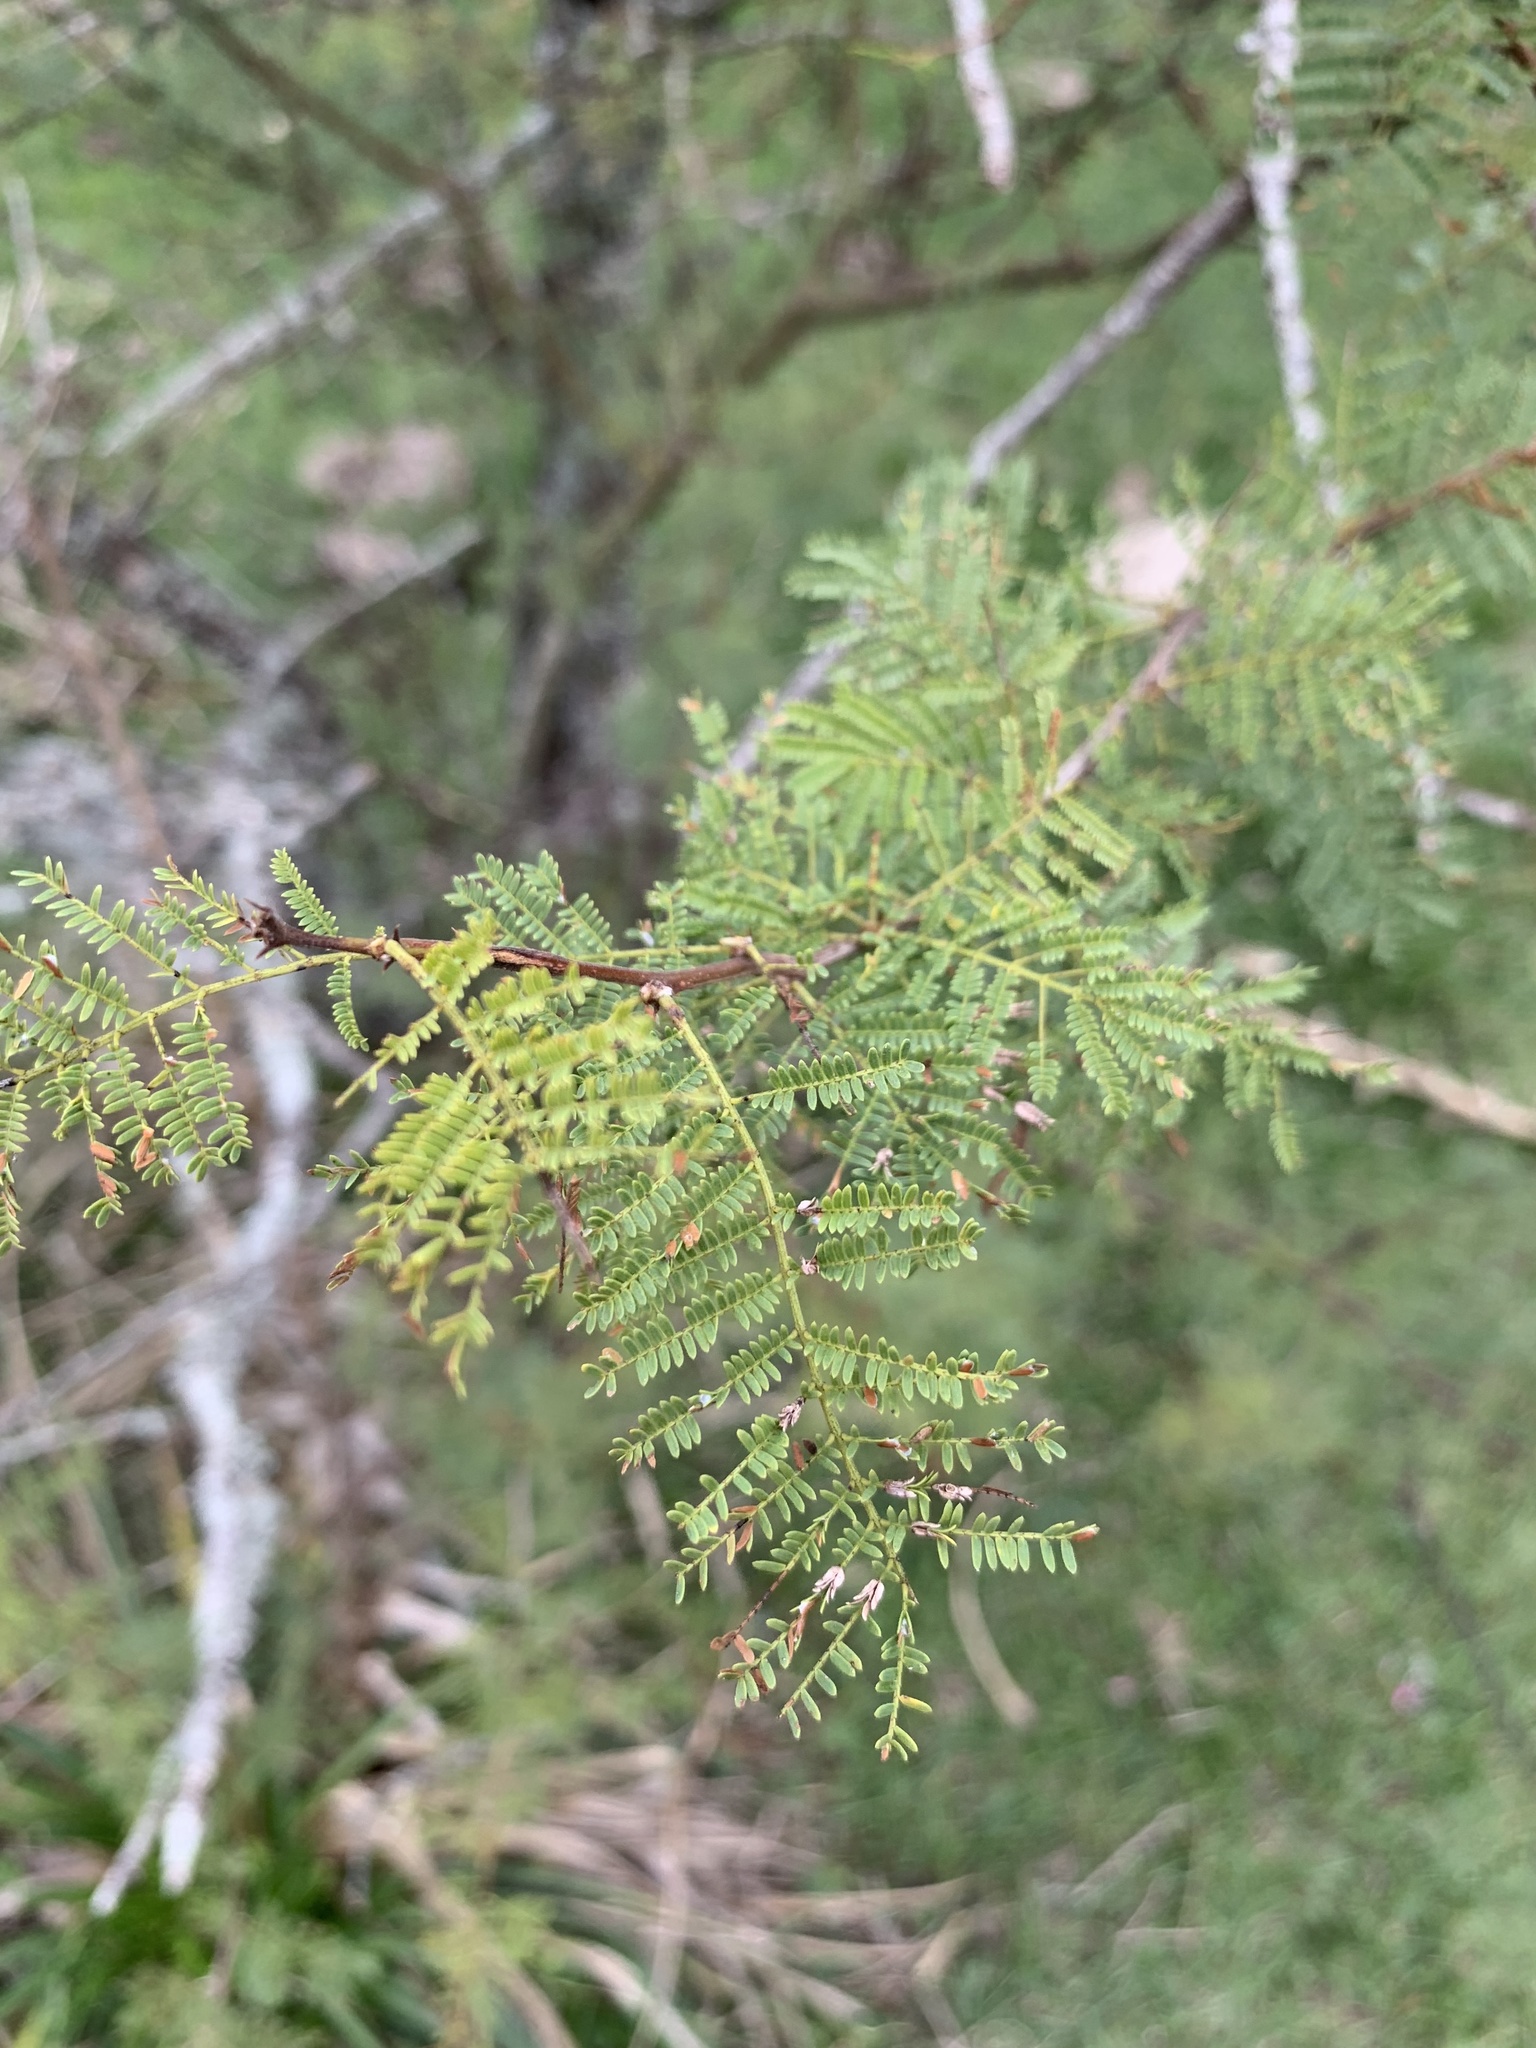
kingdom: Plantae
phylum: Tracheophyta
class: Magnoliopsida
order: Fabales
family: Fabaceae
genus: Vachellia
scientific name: Vachellia caven
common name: Roman cassie
